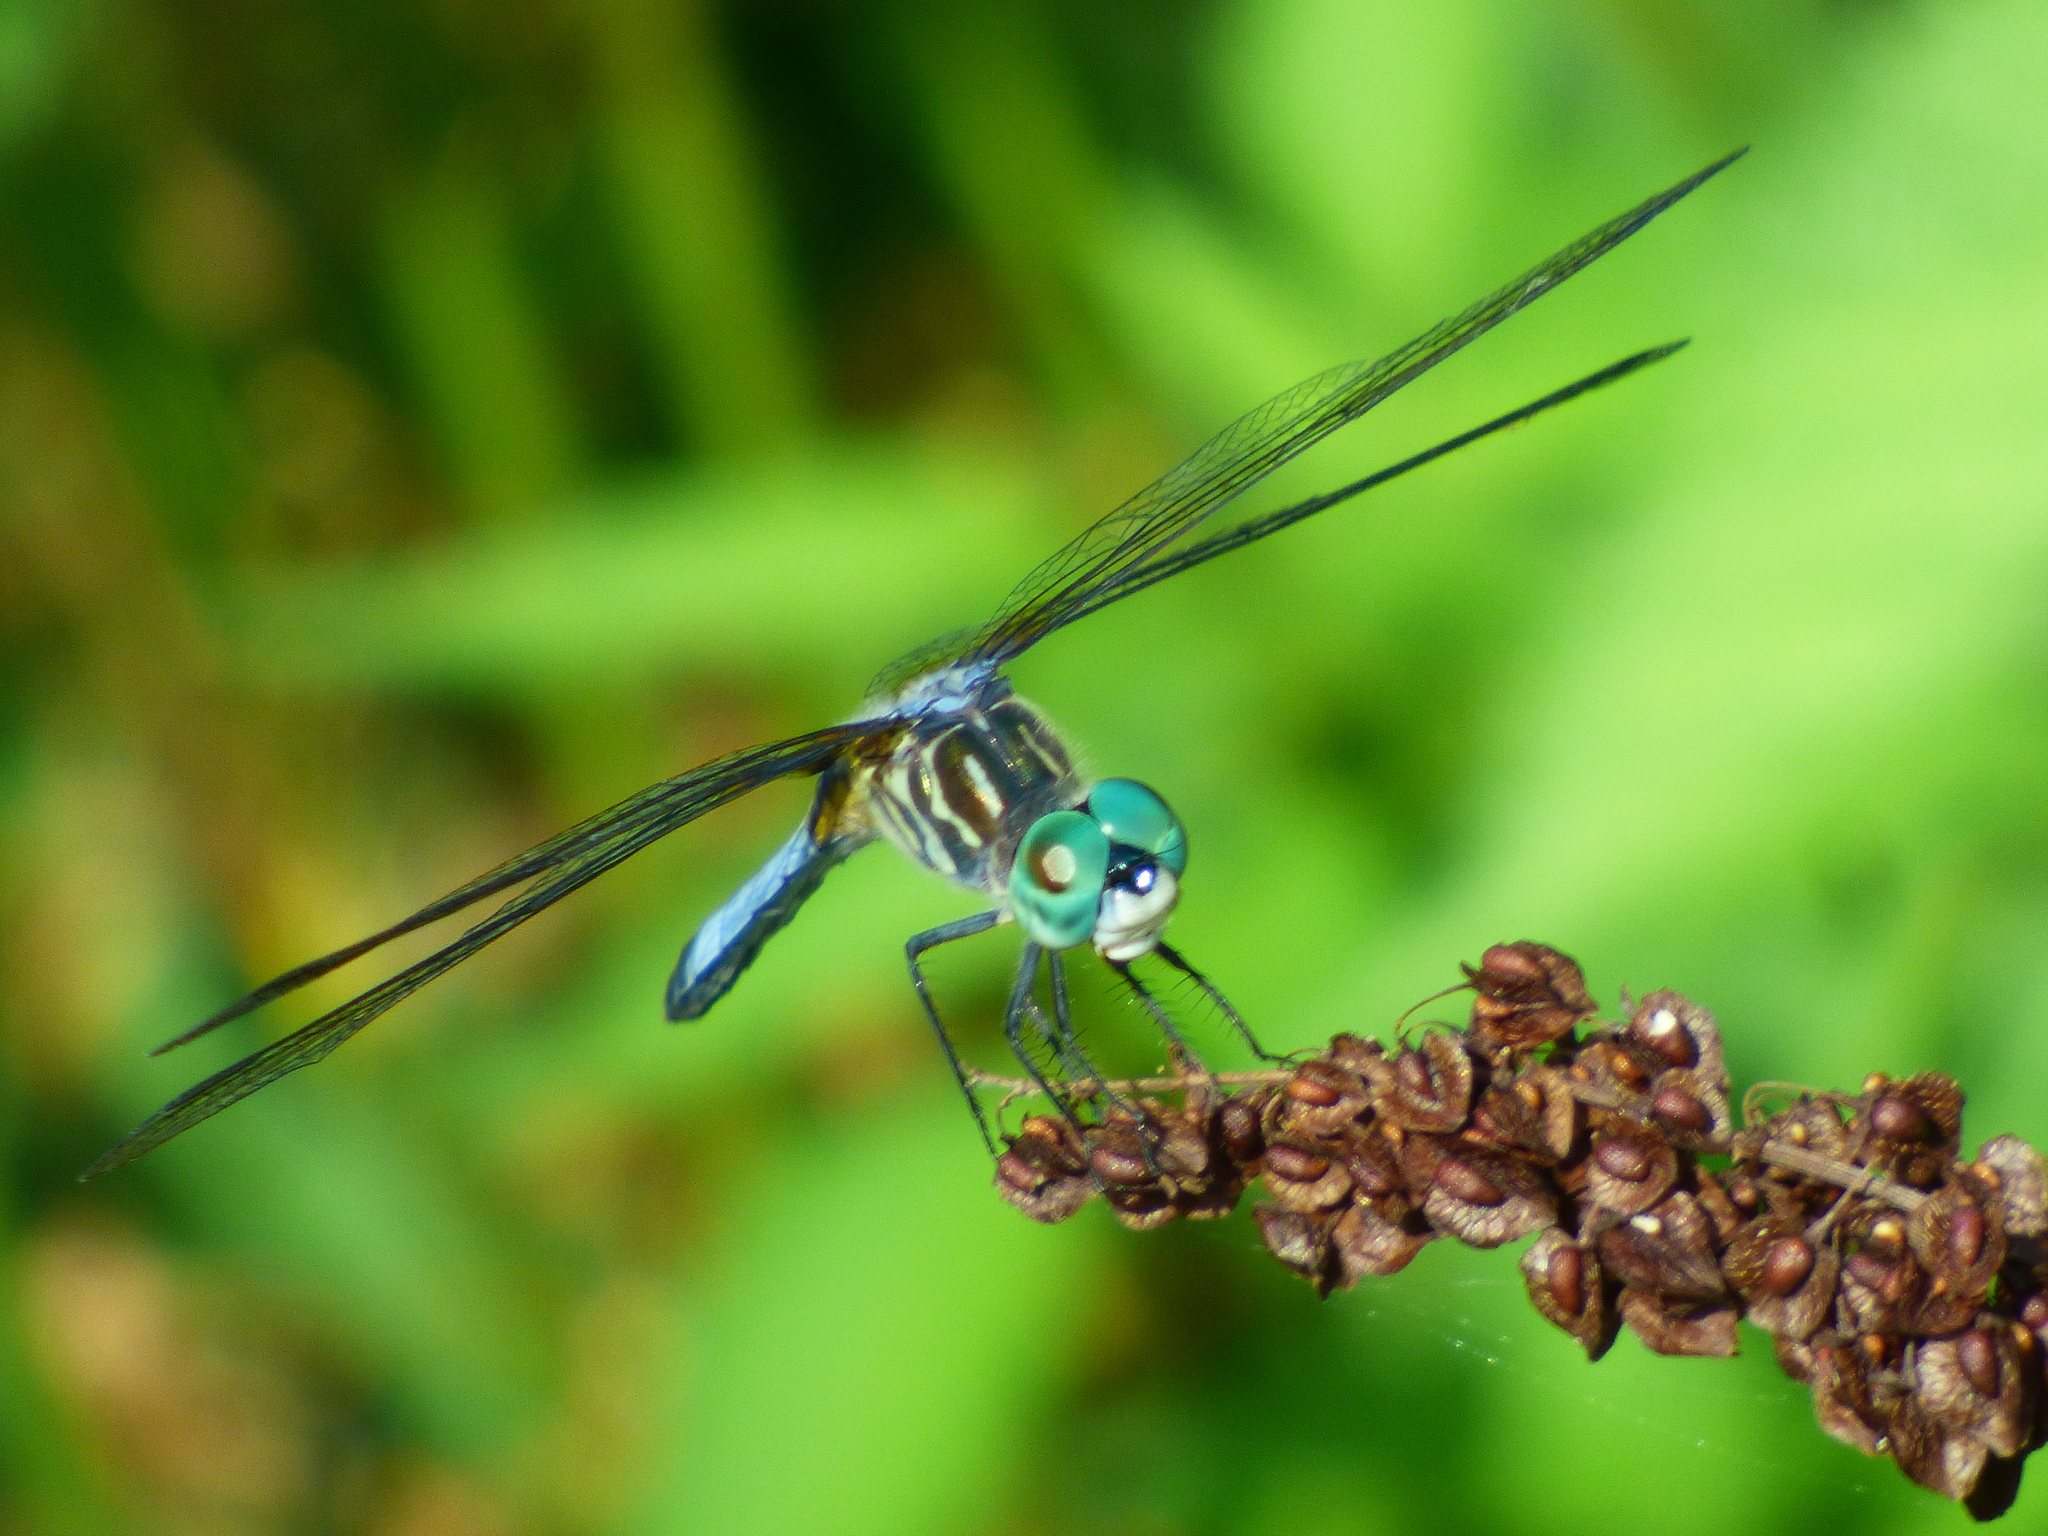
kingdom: Animalia
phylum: Arthropoda
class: Insecta
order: Odonata
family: Libellulidae
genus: Pachydiplax
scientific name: Pachydiplax longipennis
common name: Blue dasher
